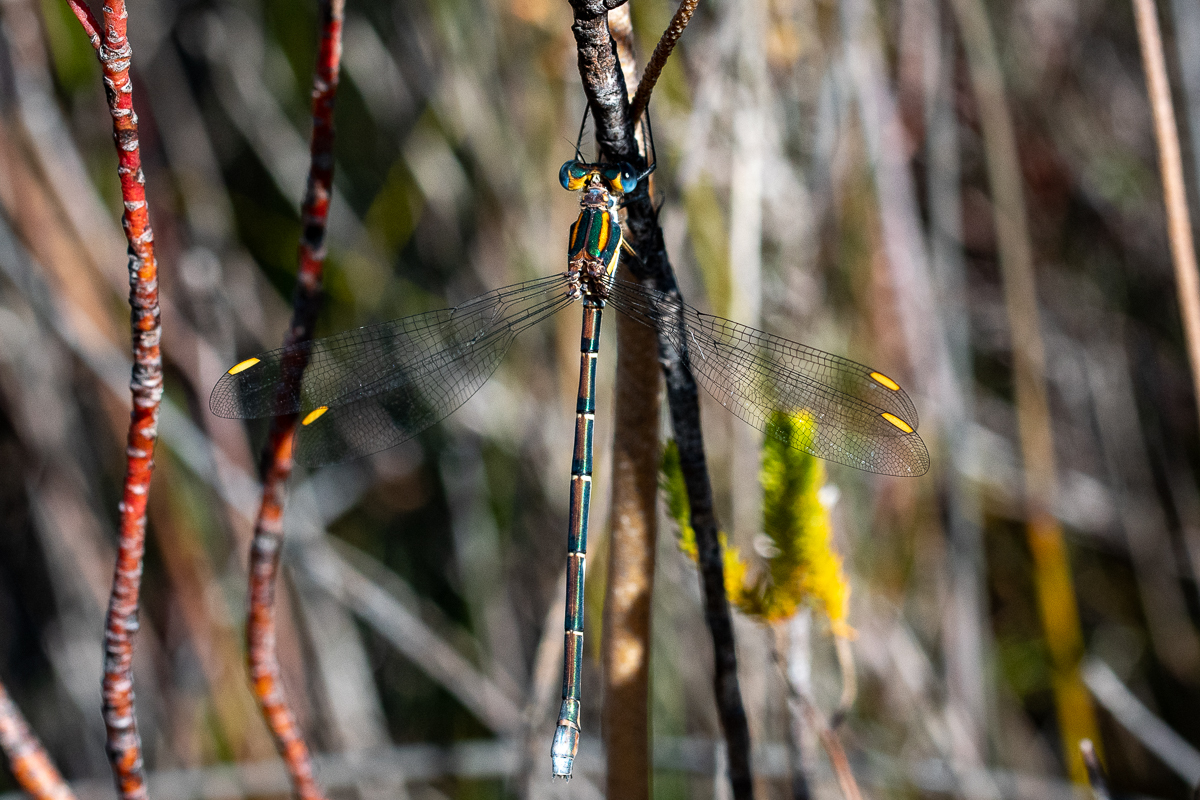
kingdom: Animalia
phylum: Arthropoda
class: Insecta
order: Odonata
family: Synlestidae
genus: Chlorolestes
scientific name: Chlorolestes conspicuus
